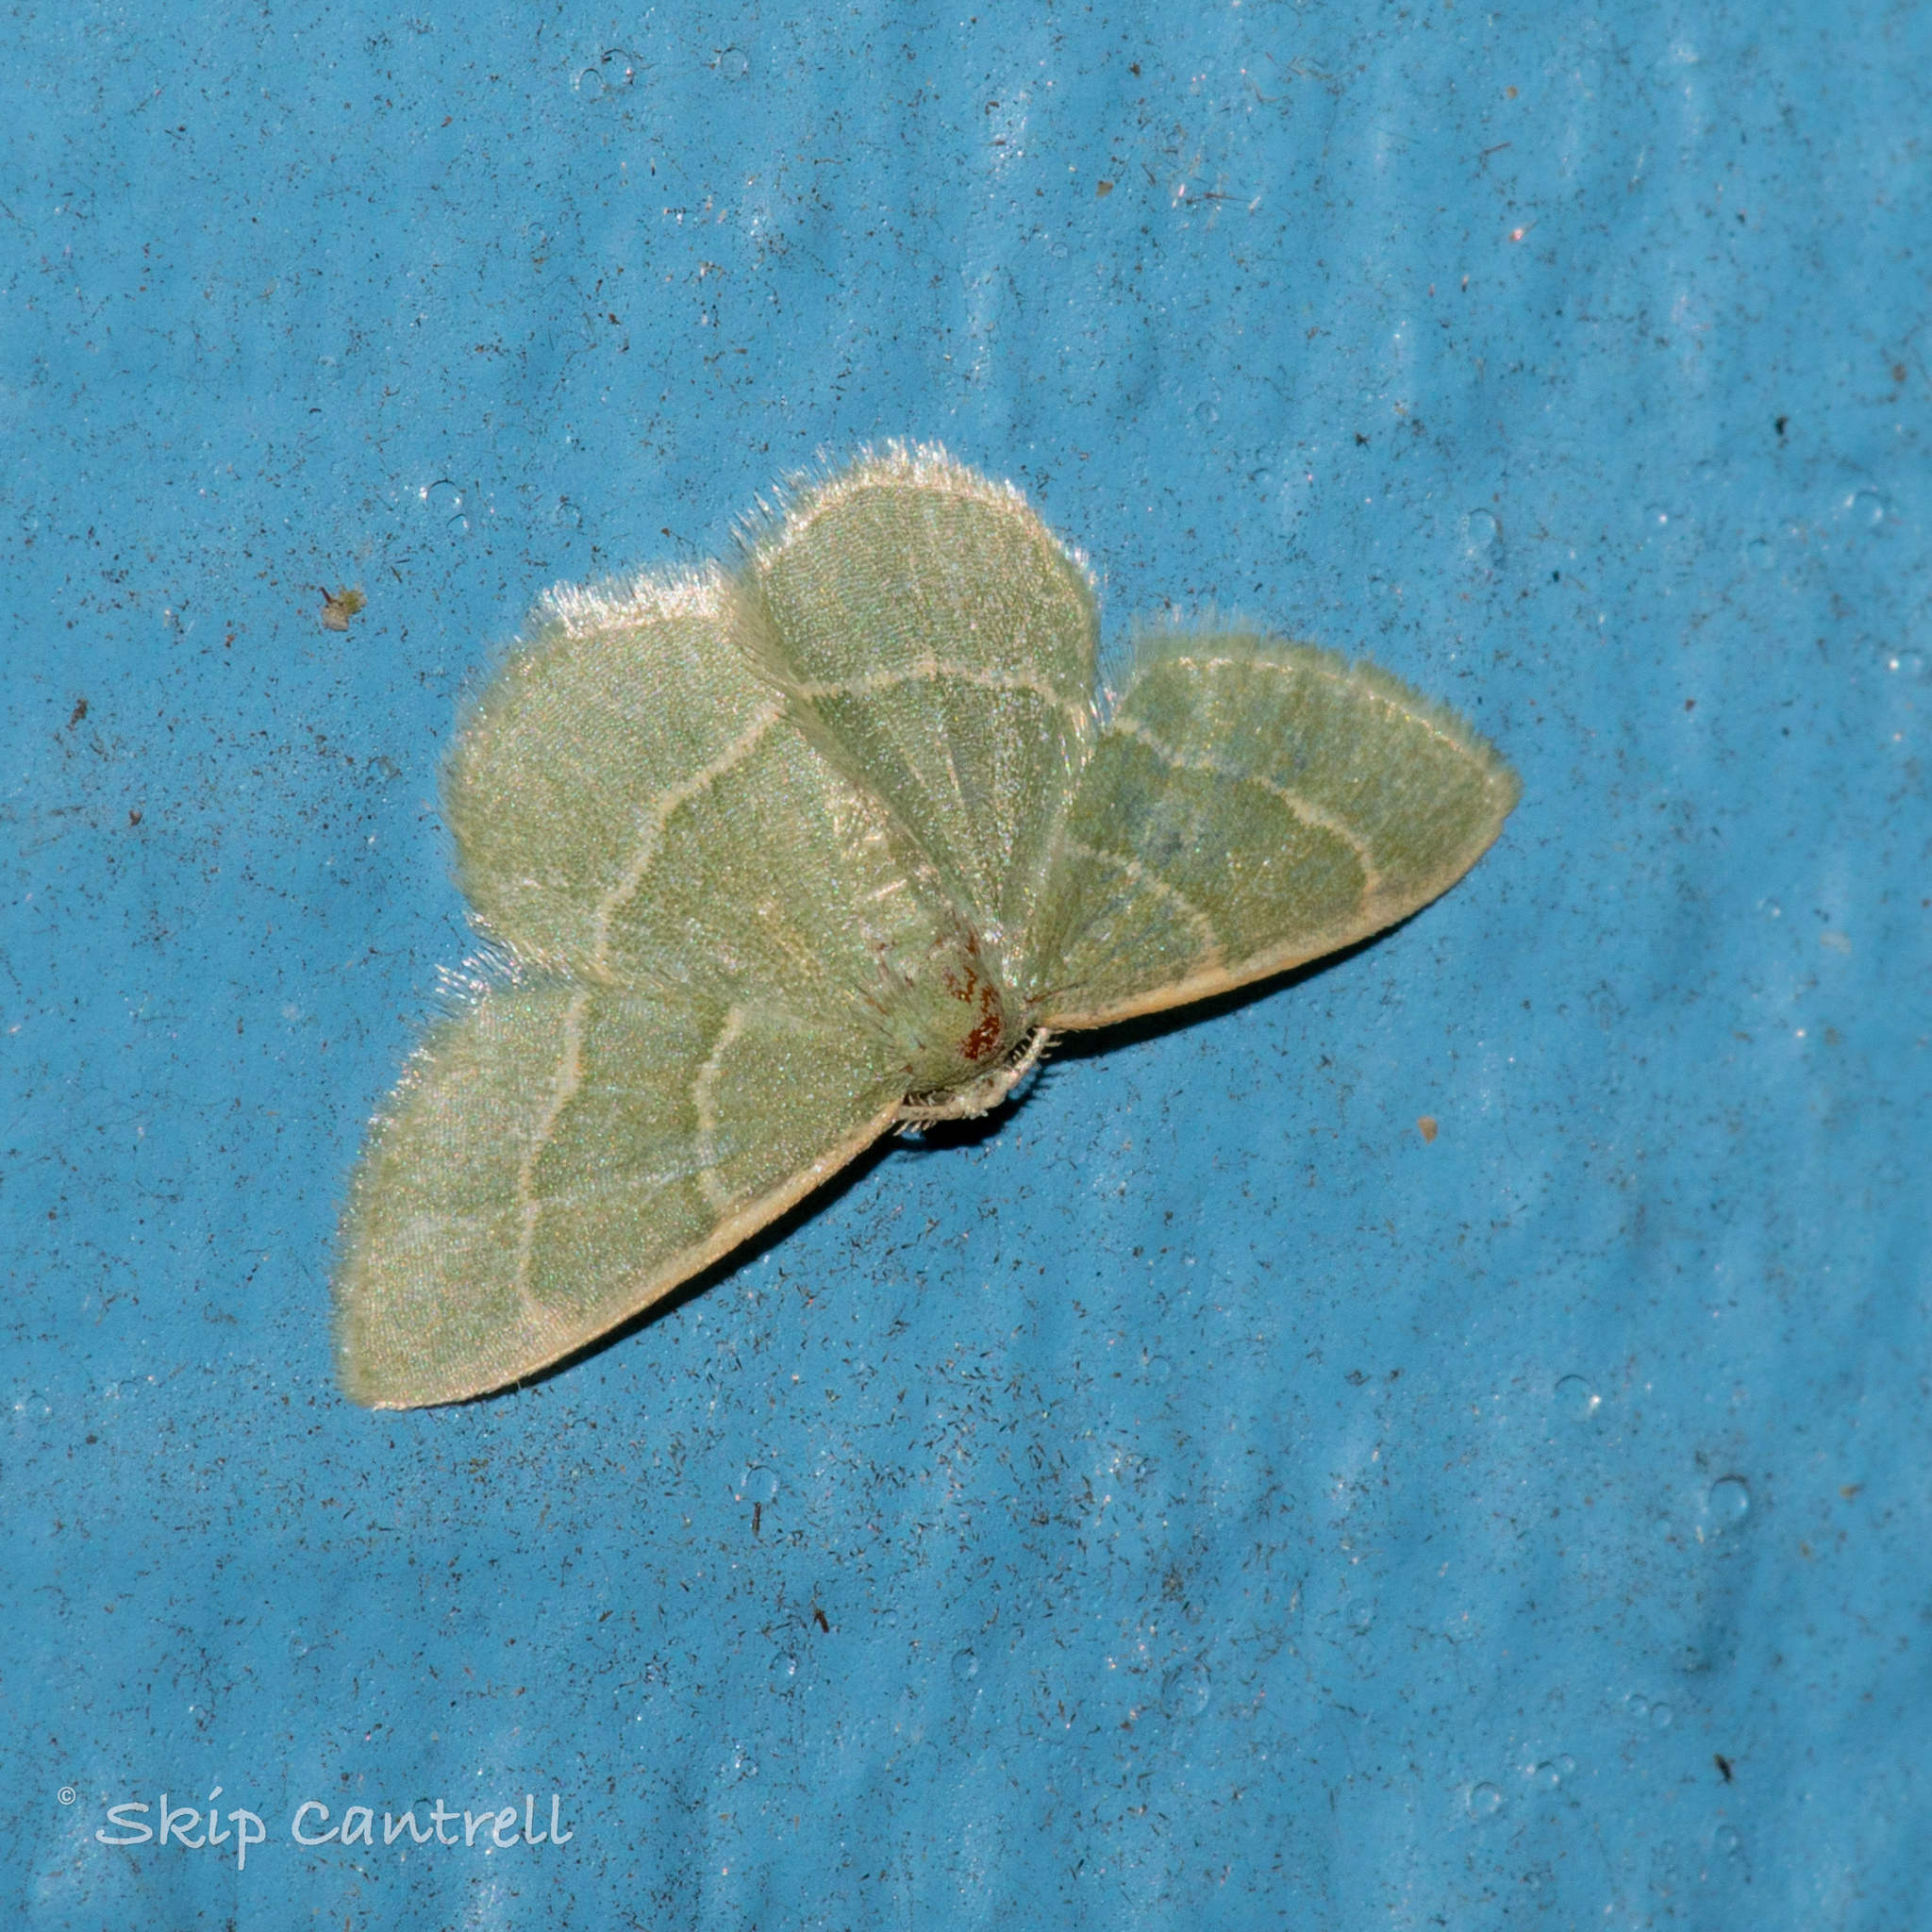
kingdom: Animalia
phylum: Arthropoda
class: Insecta
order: Lepidoptera
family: Geometridae
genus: Chlorochlamys
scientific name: Chlorochlamys phyllinaria
